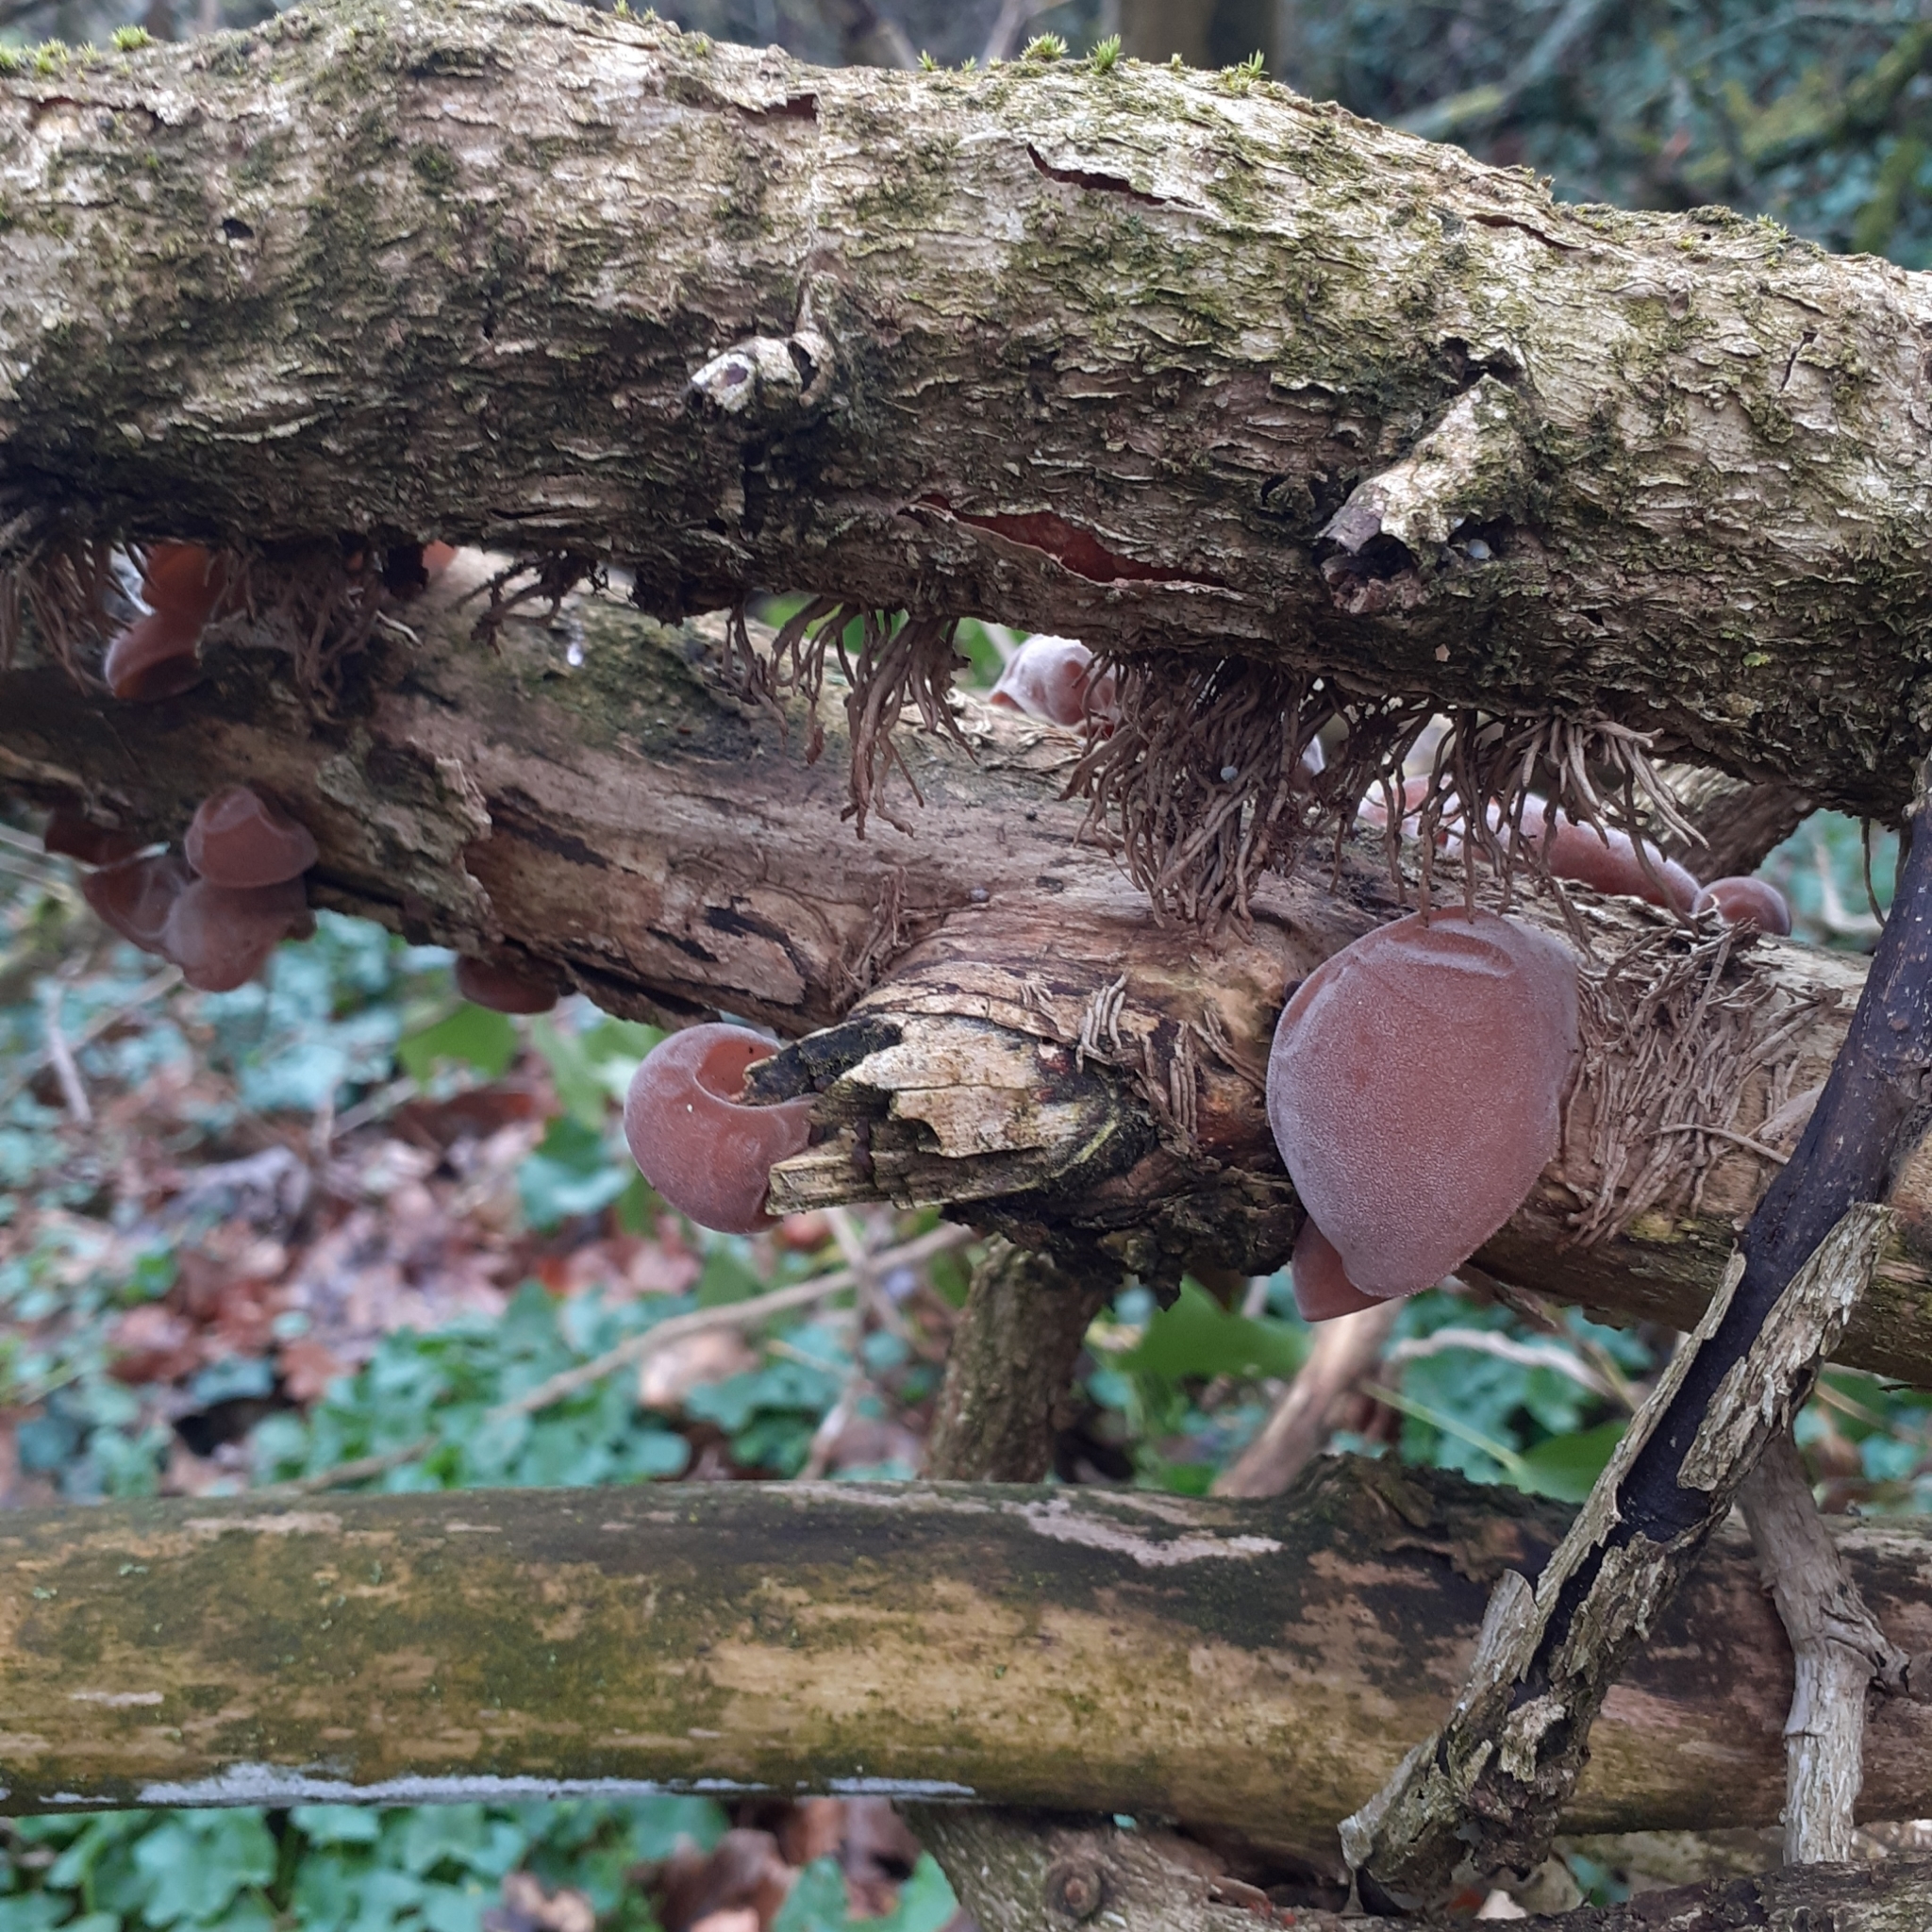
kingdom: Fungi
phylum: Basidiomycota
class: Agaricomycetes
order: Auriculariales
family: Auriculariaceae
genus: Auricularia
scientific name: Auricularia auricula-judae
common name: Jelly ear
